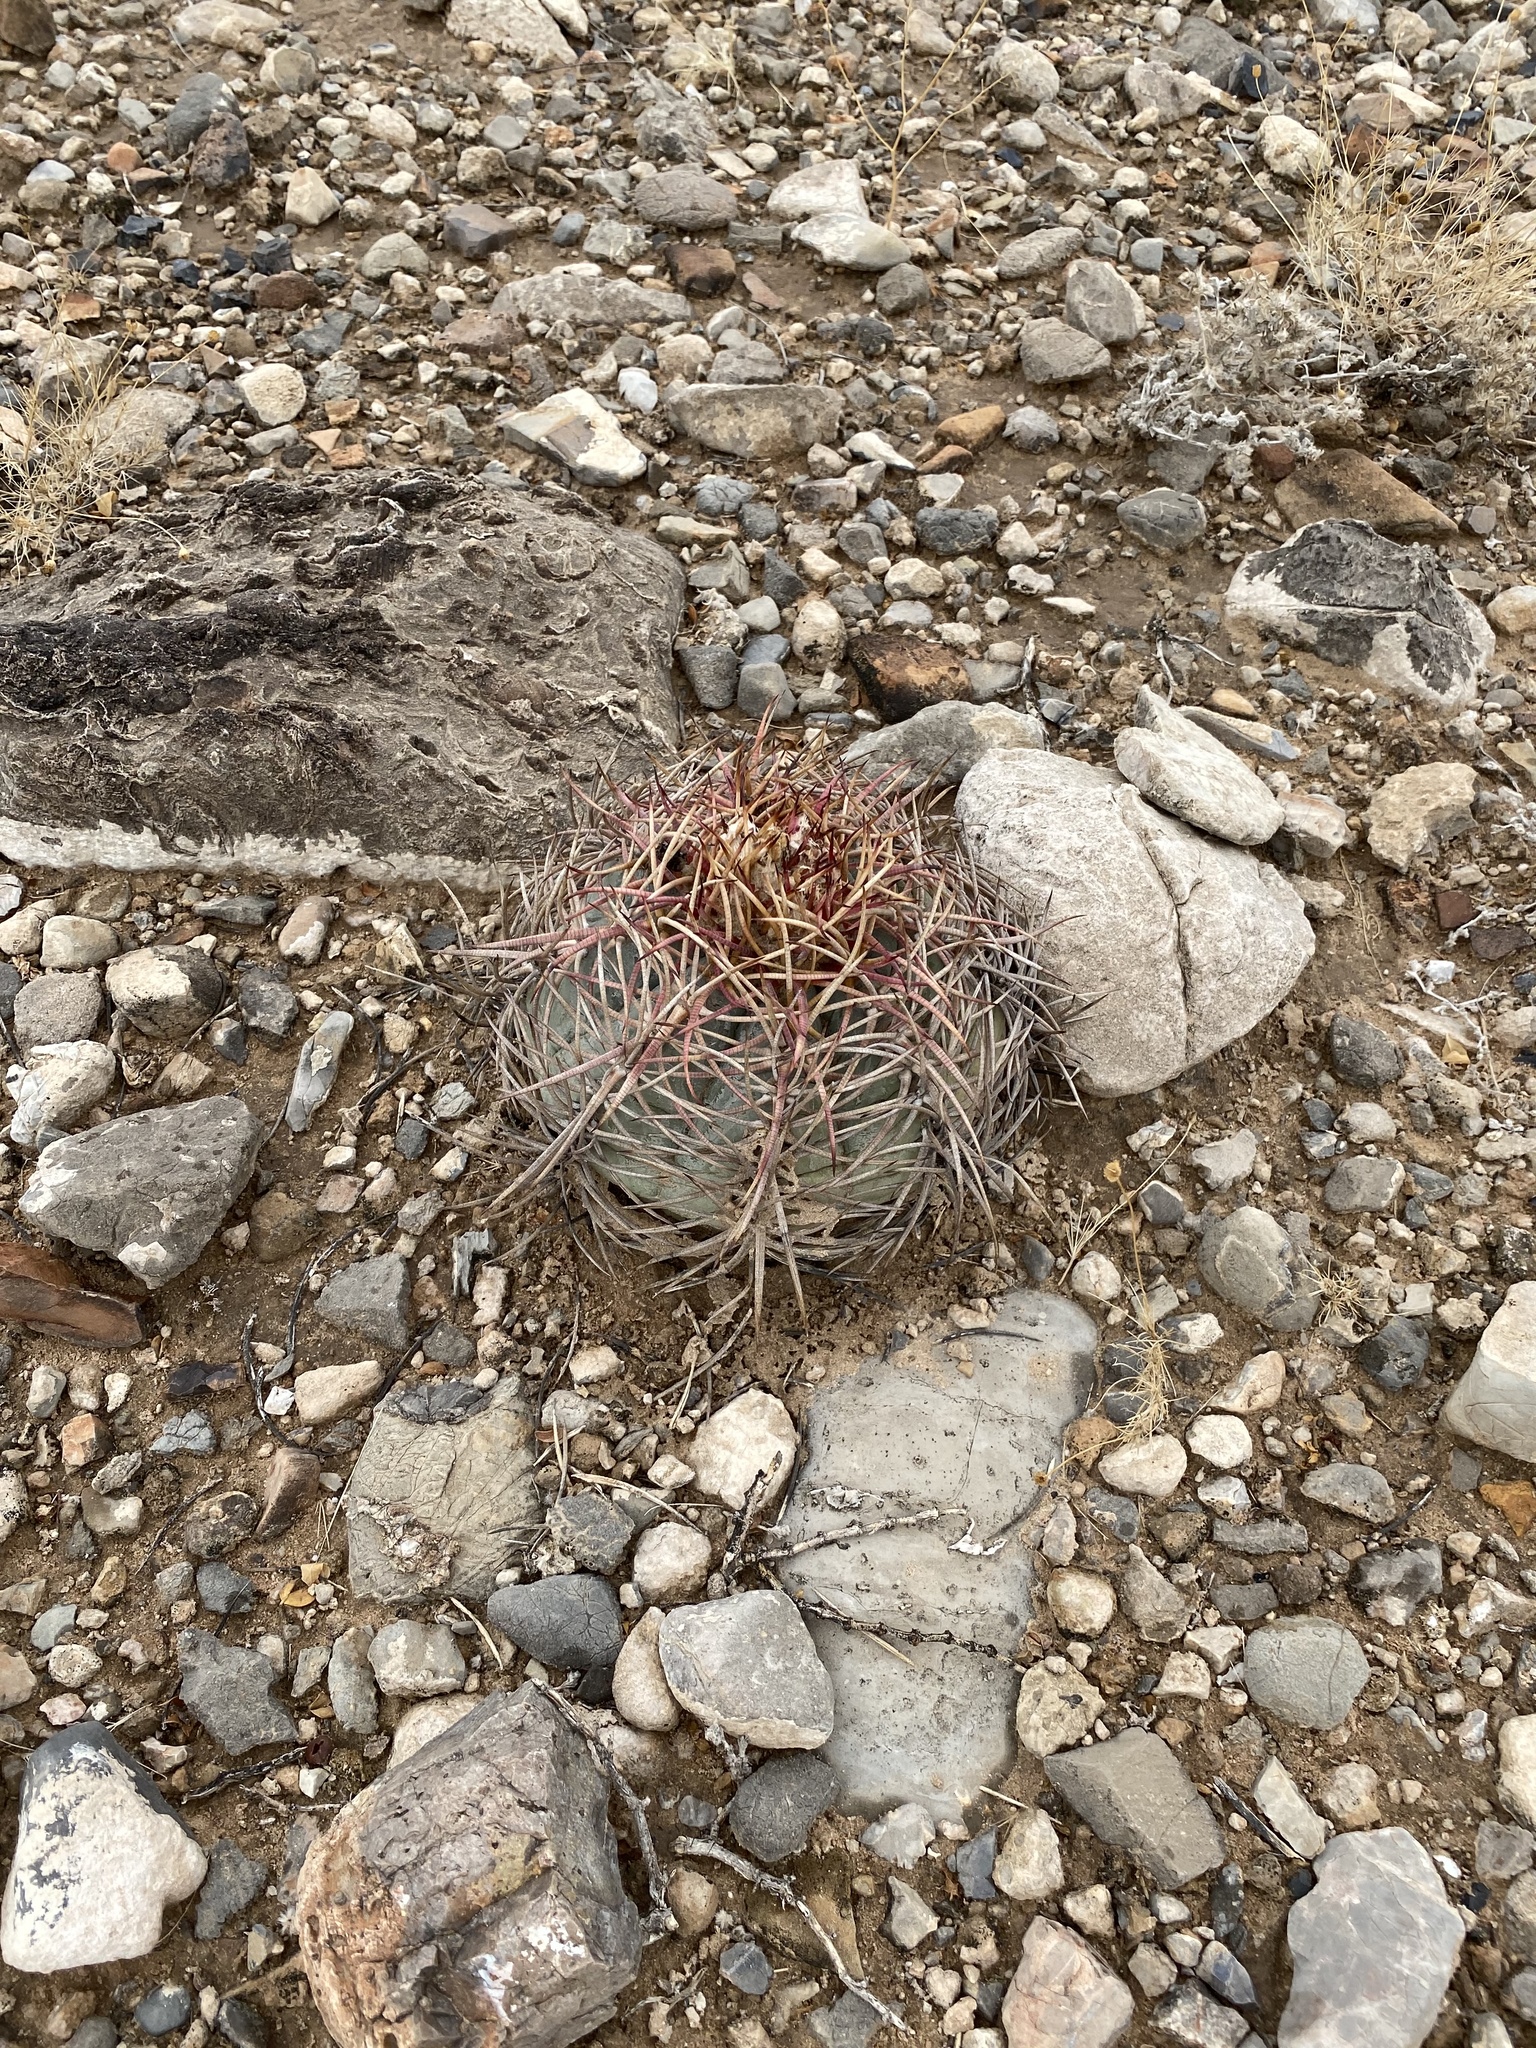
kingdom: Plantae
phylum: Tracheophyta
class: Magnoliopsida
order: Caryophyllales
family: Cactaceae
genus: Echinocactus
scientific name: Echinocactus horizonthalonius
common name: Devilshead
